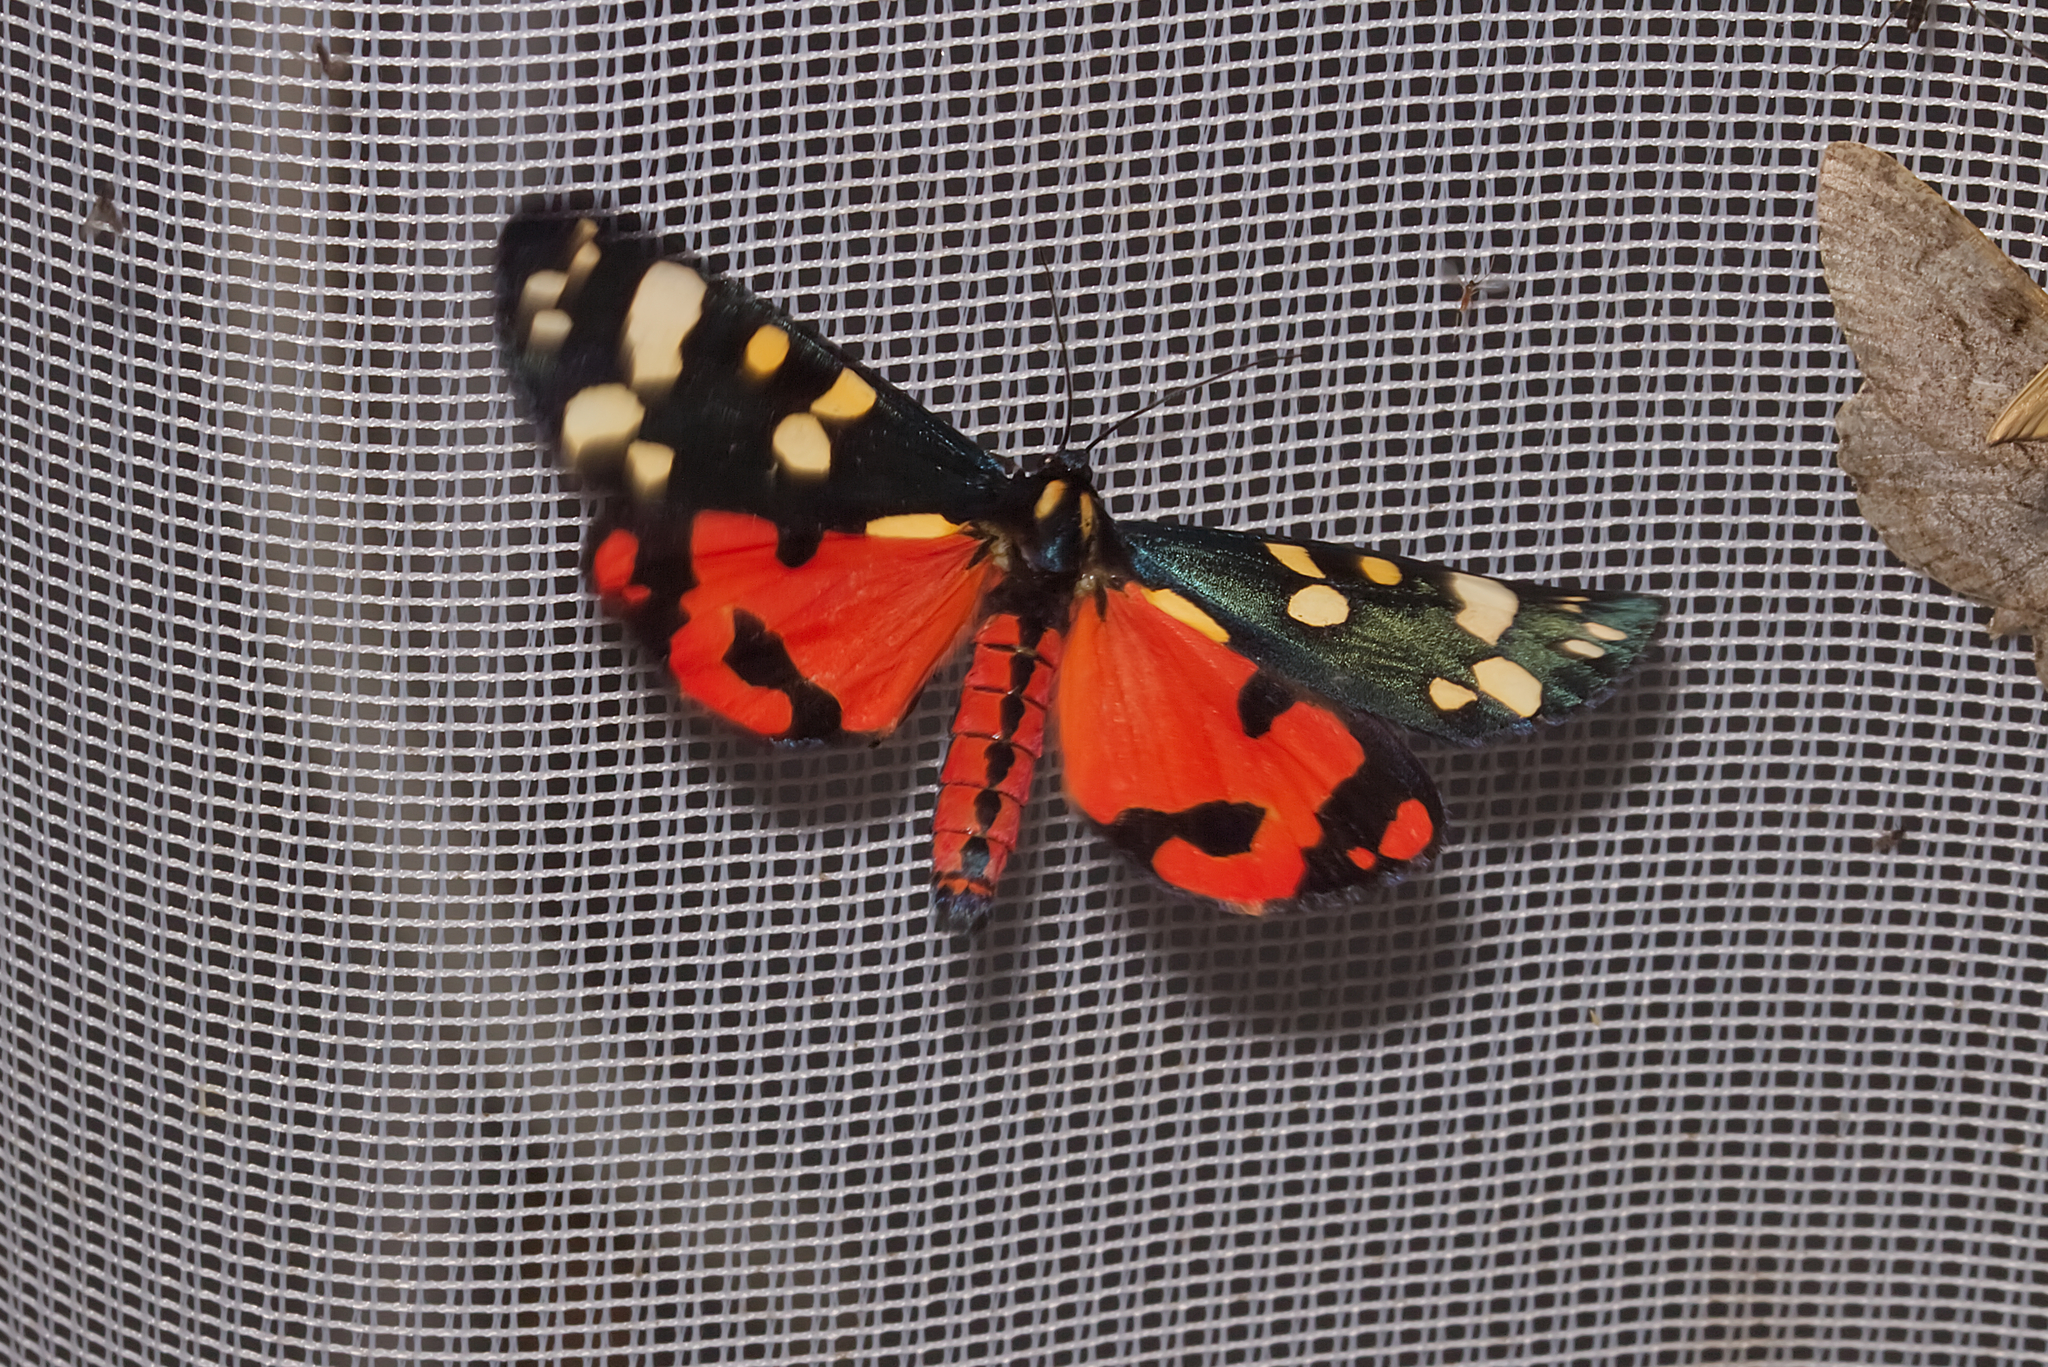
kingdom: Animalia
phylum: Arthropoda
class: Insecta
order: Lepidoptera
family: Erebidae
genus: Callimorpha
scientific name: Callimorpha dominula
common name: Scarlet tiger
